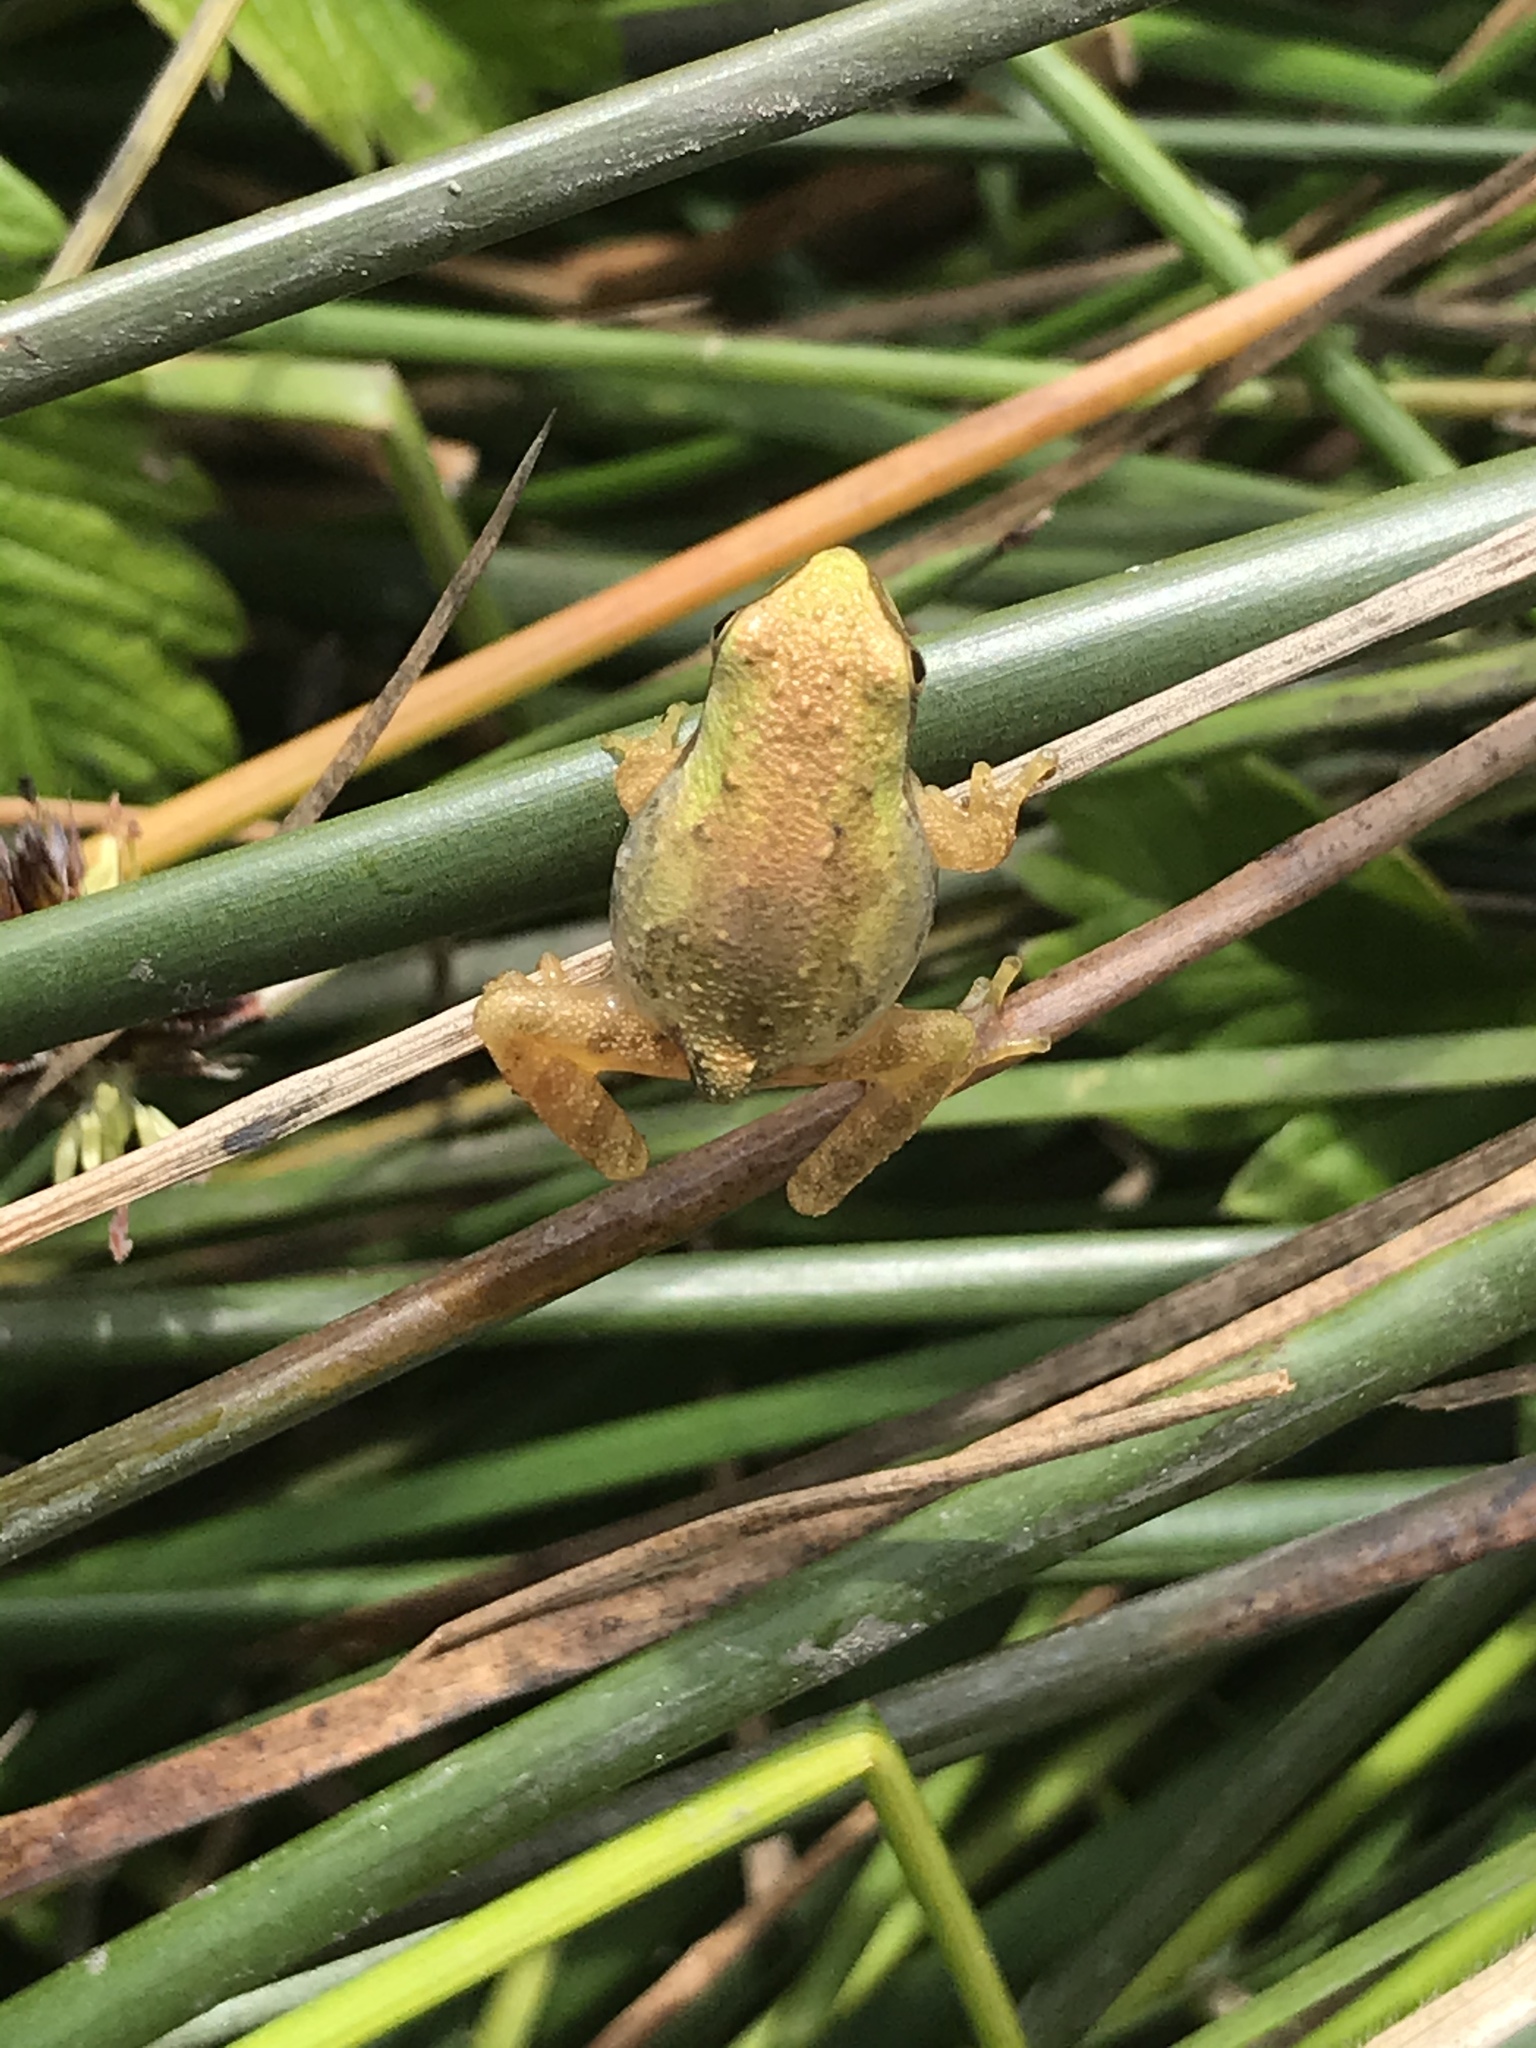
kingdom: Animalia
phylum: Chordata
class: Amphibia
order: Anura
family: Hylidae
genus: Pseudacris
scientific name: Pseudacris regilla
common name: Pacific chorus frog
